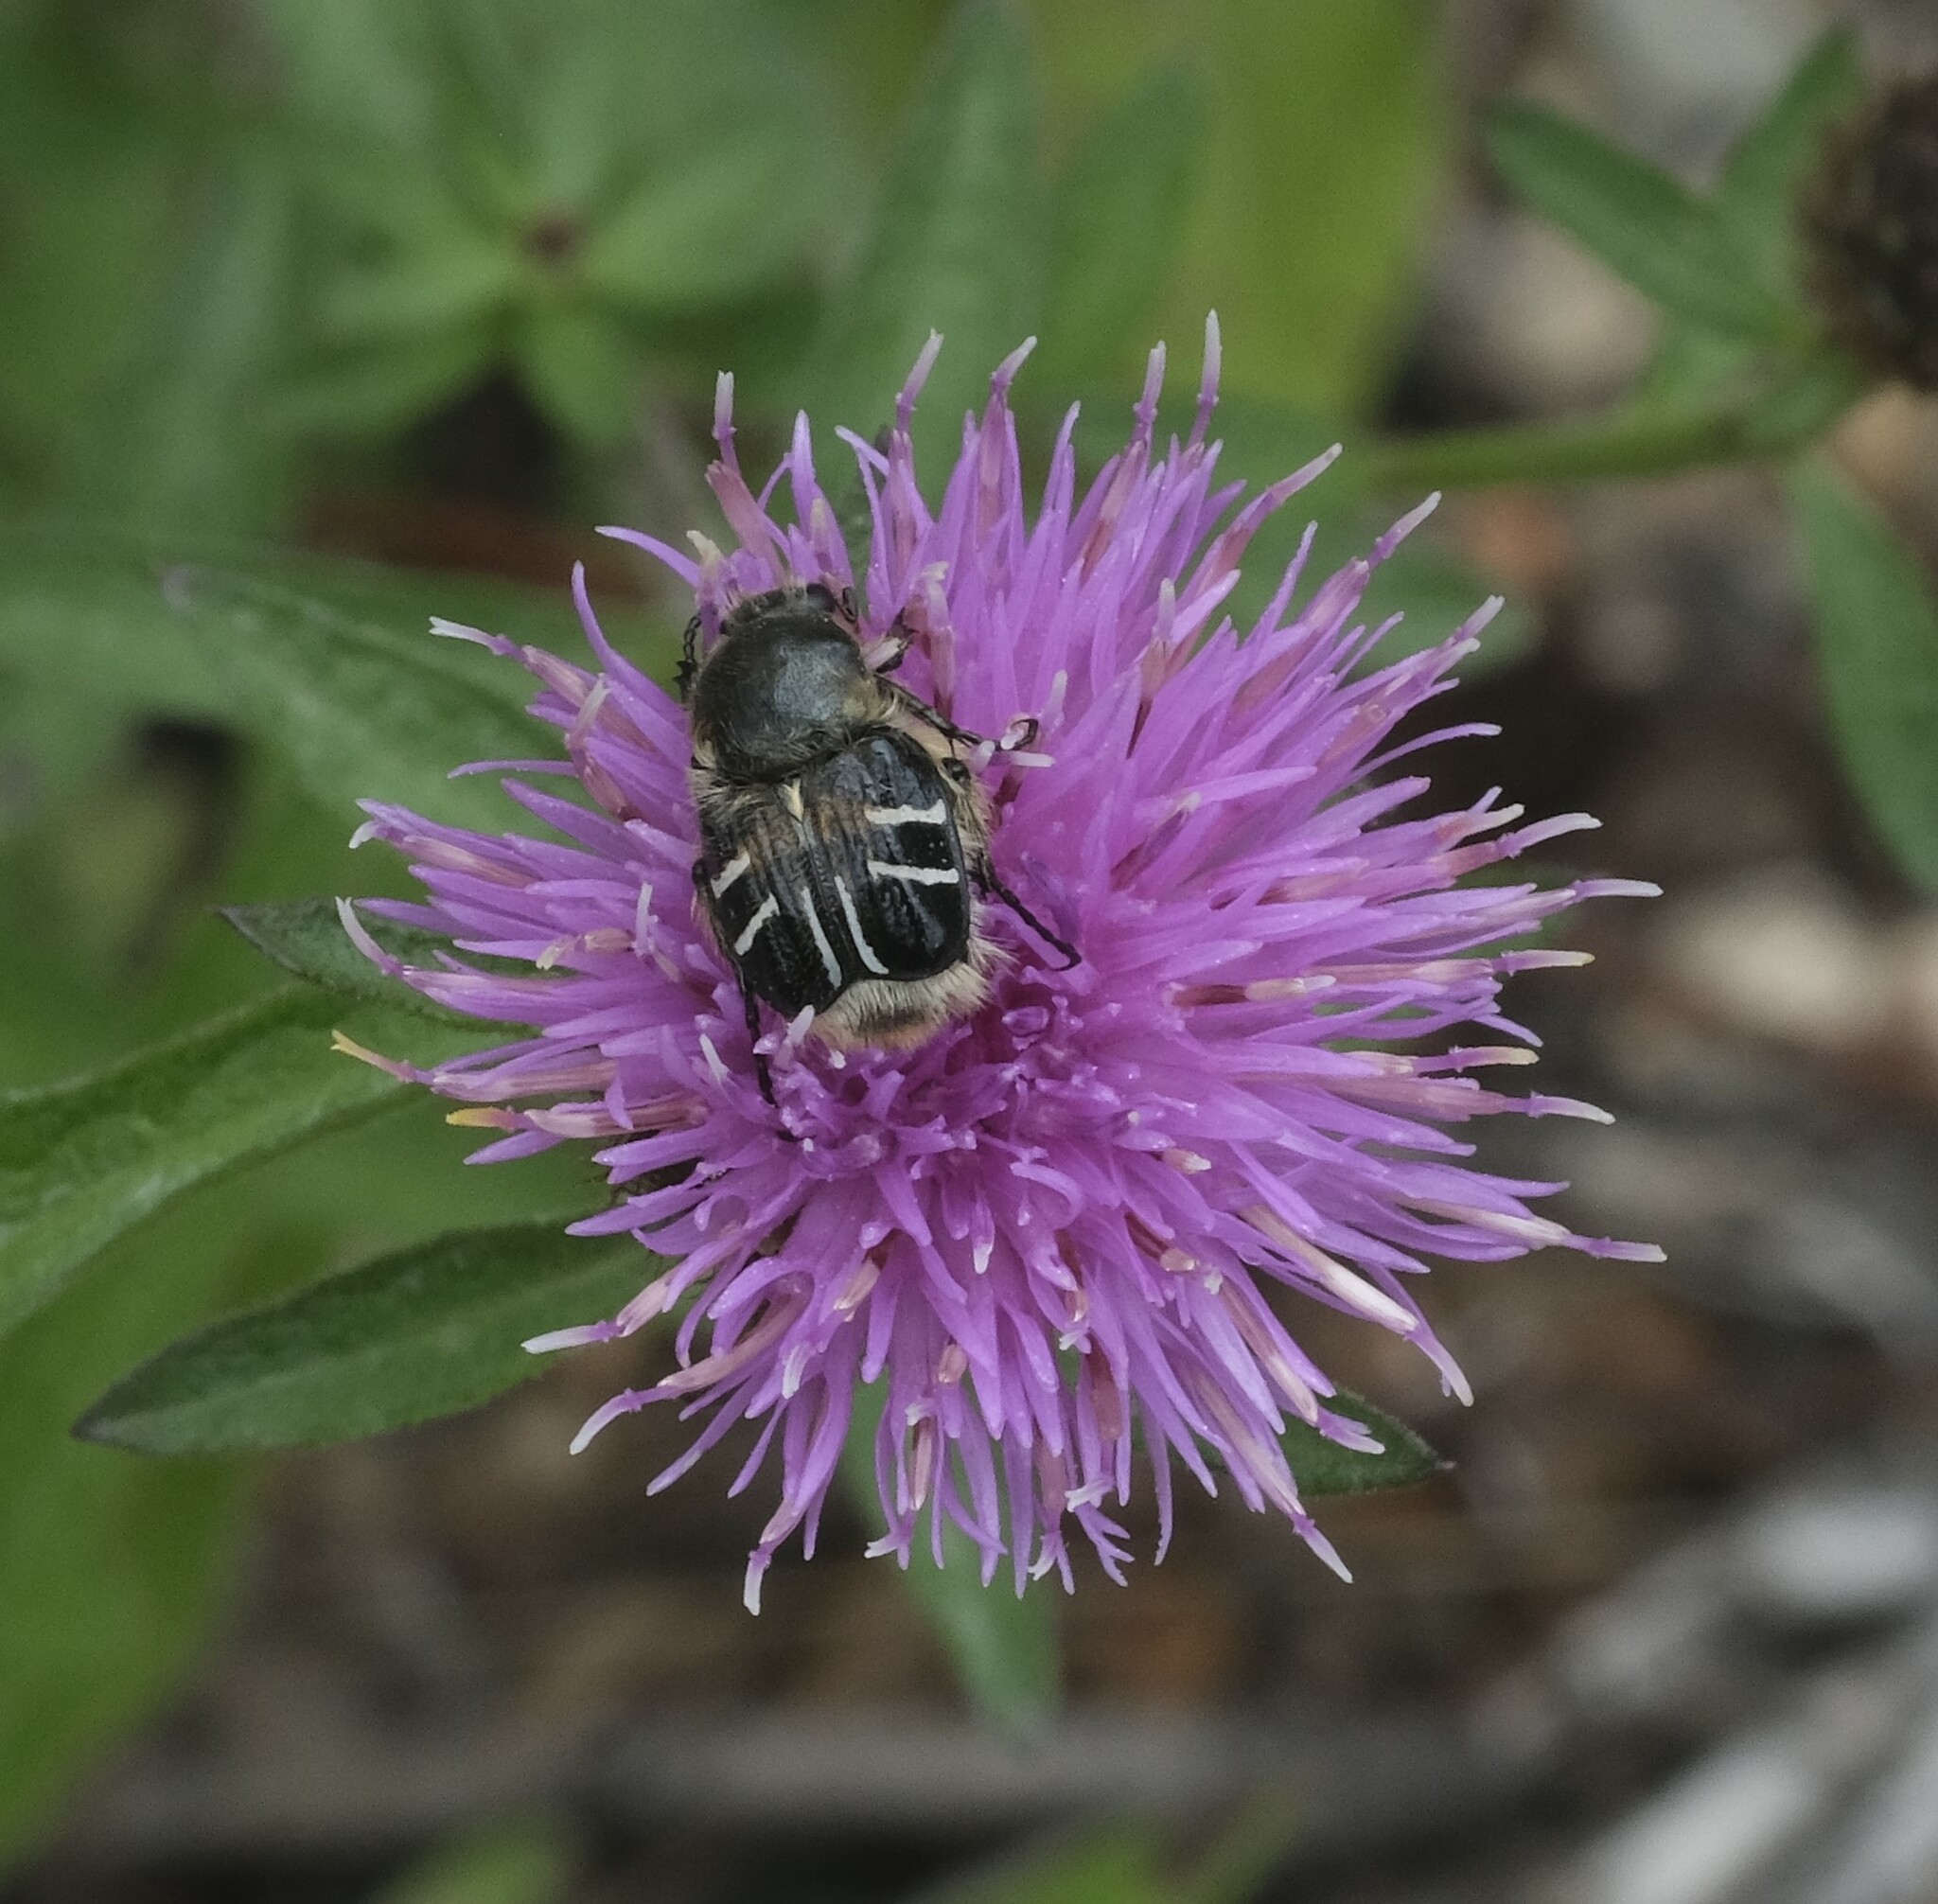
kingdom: Animalia
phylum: Arthropoda
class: Insecta
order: Coleoptera
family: Scarabaeidae
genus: Trichiotinus
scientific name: Trichiotinus assimilis
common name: Bee-mimic beetle
